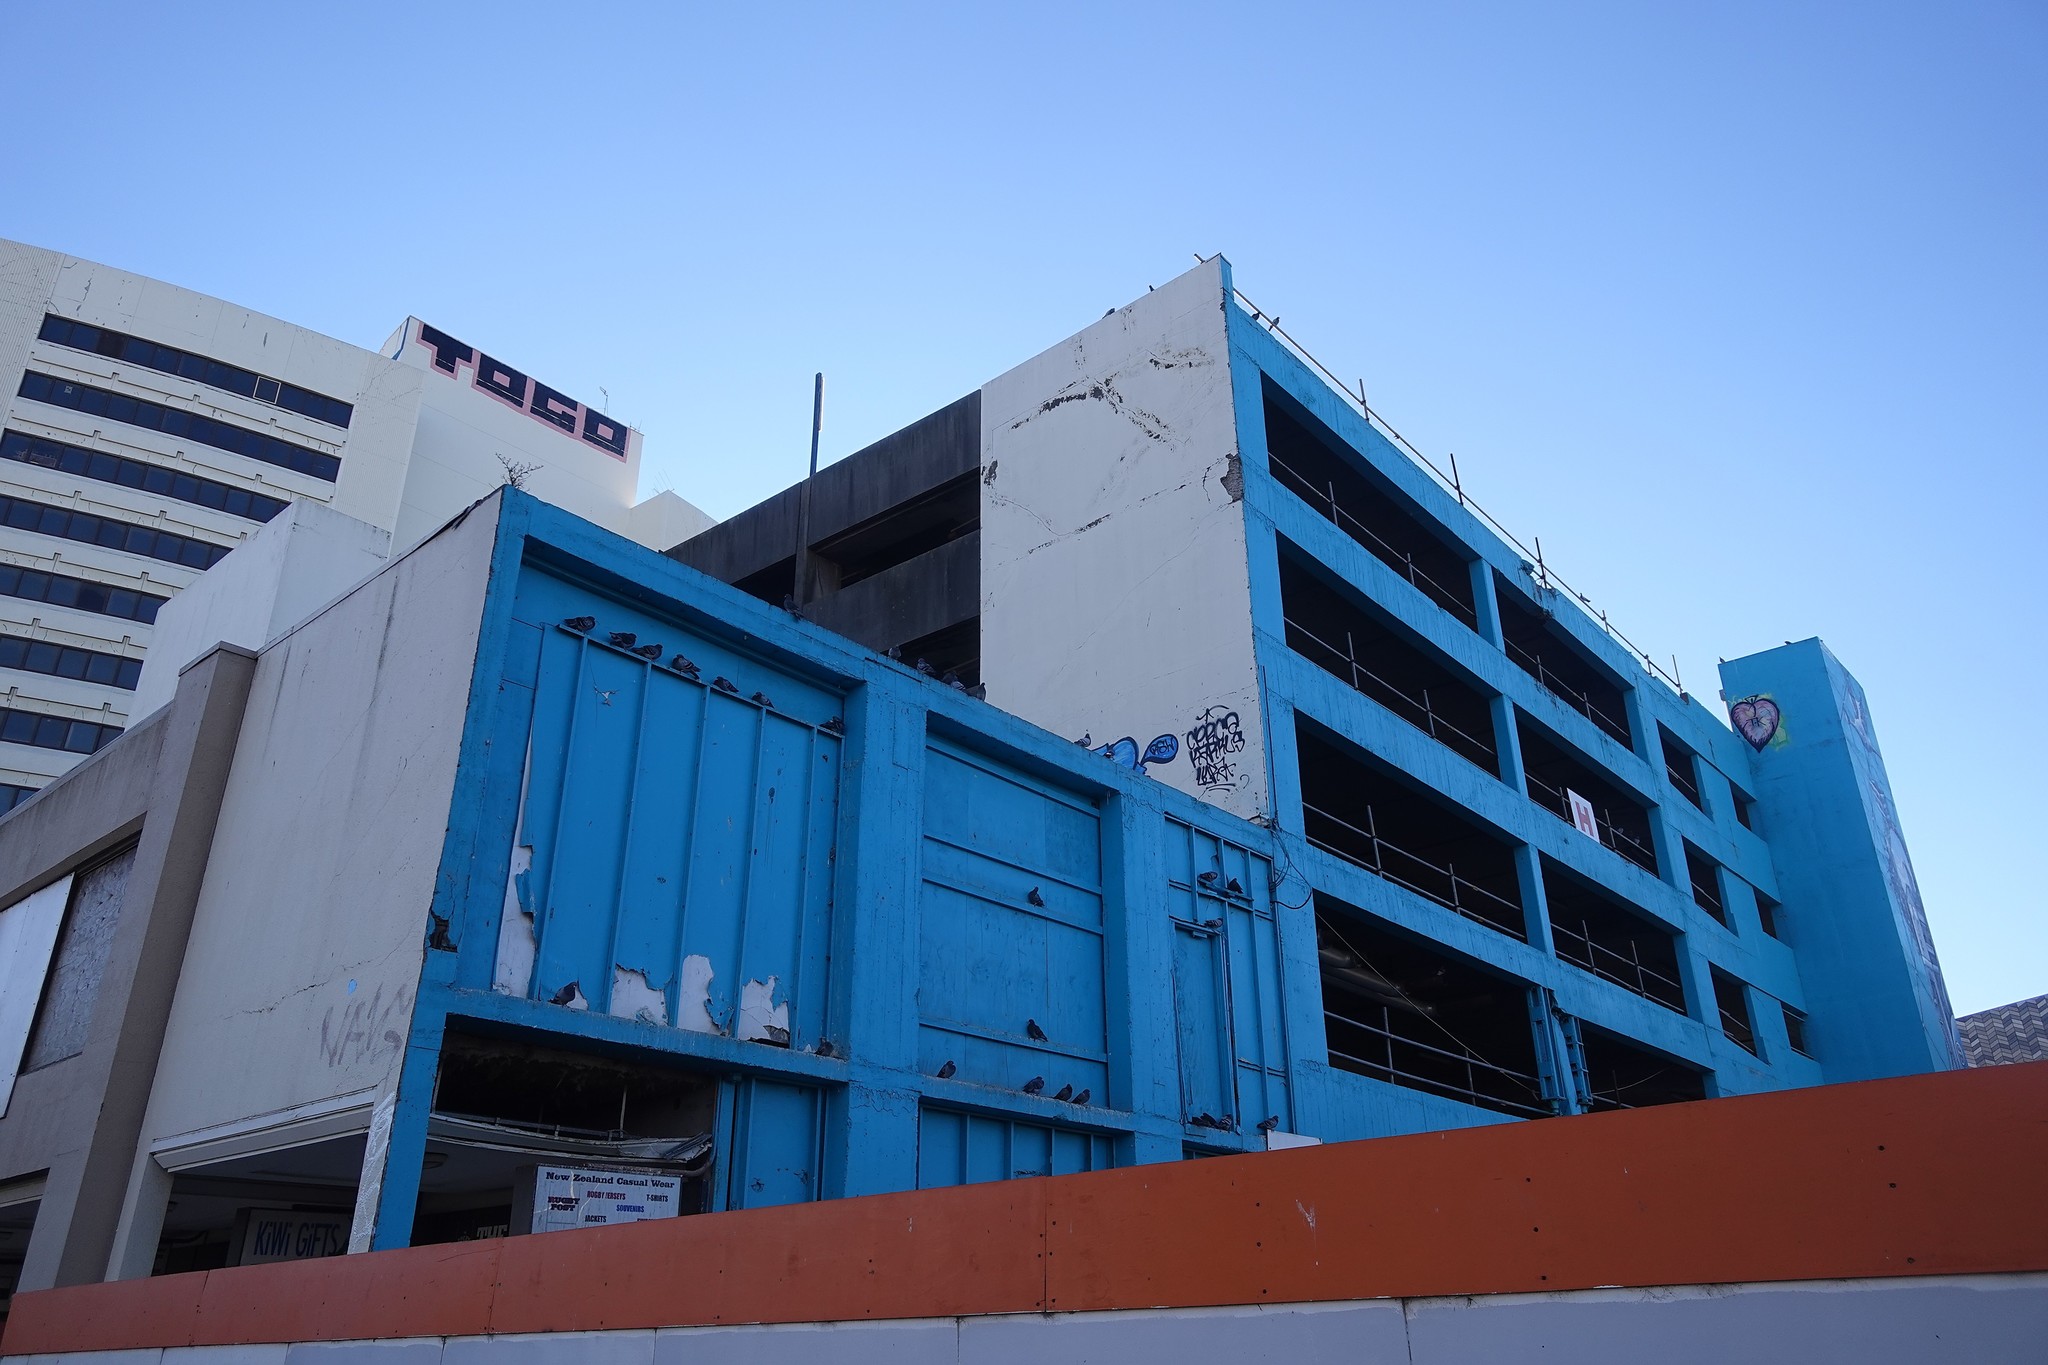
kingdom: Animalia
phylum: Chordata
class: Aves
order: Columbiformes
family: Columbidae
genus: Columba
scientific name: Columba livia
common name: Rock pigeon
